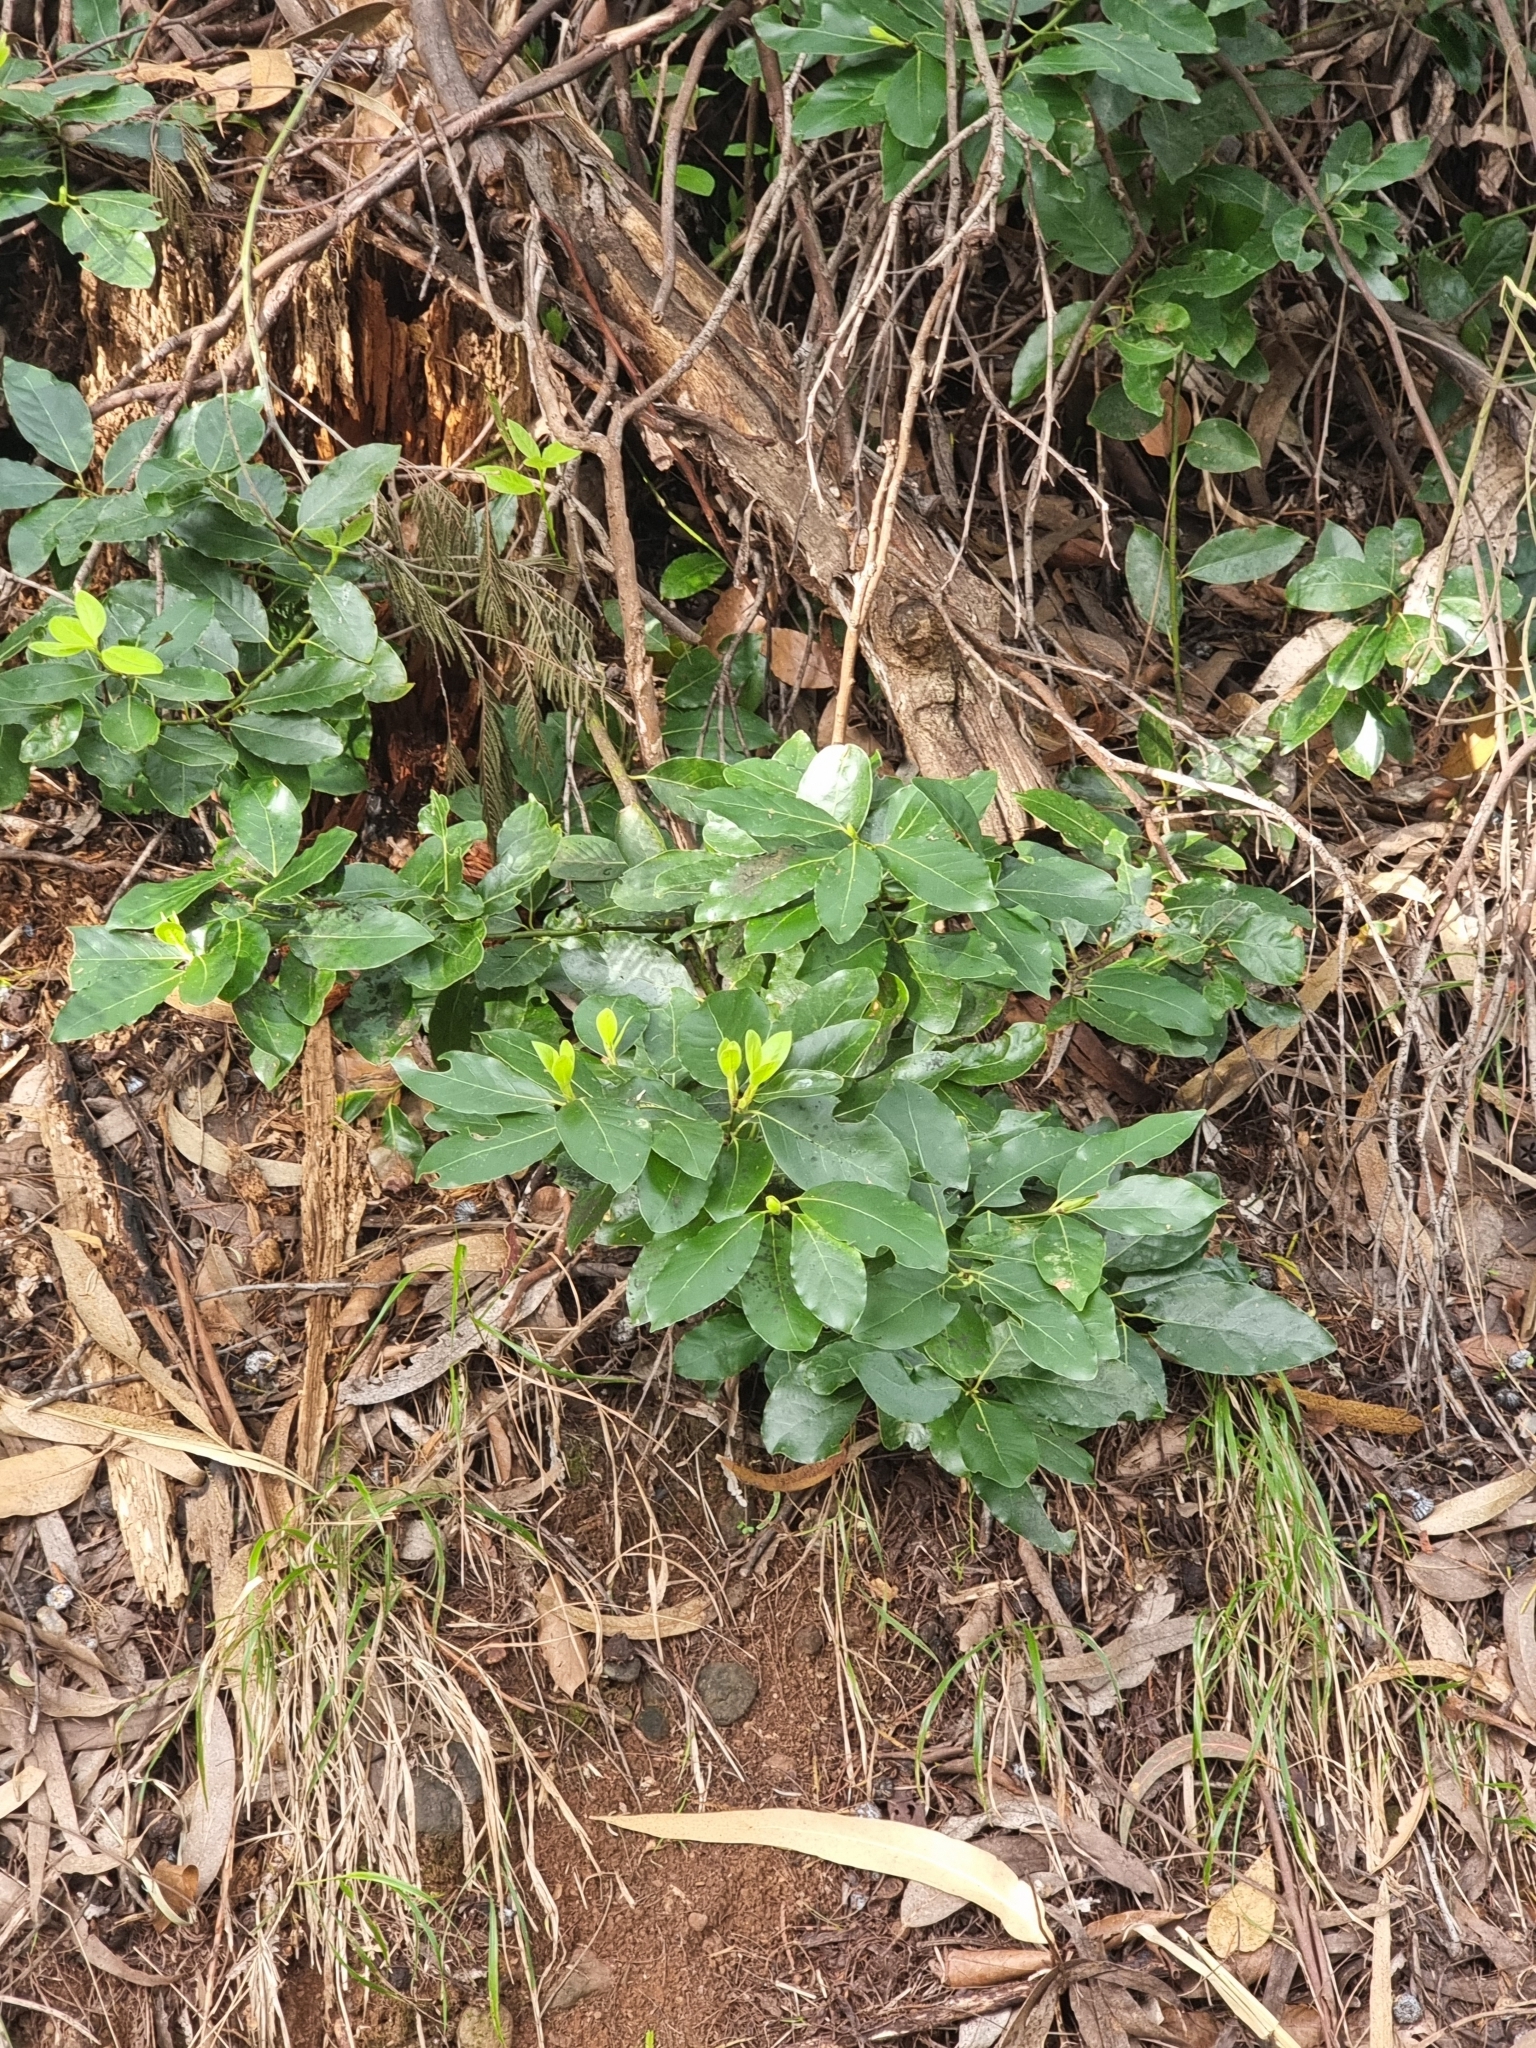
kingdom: Plantae
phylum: Tracheophyta
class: Magnoliopsida
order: Laurales
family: Lauraceae
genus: Laurus
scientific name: Laurus novocanariensis
